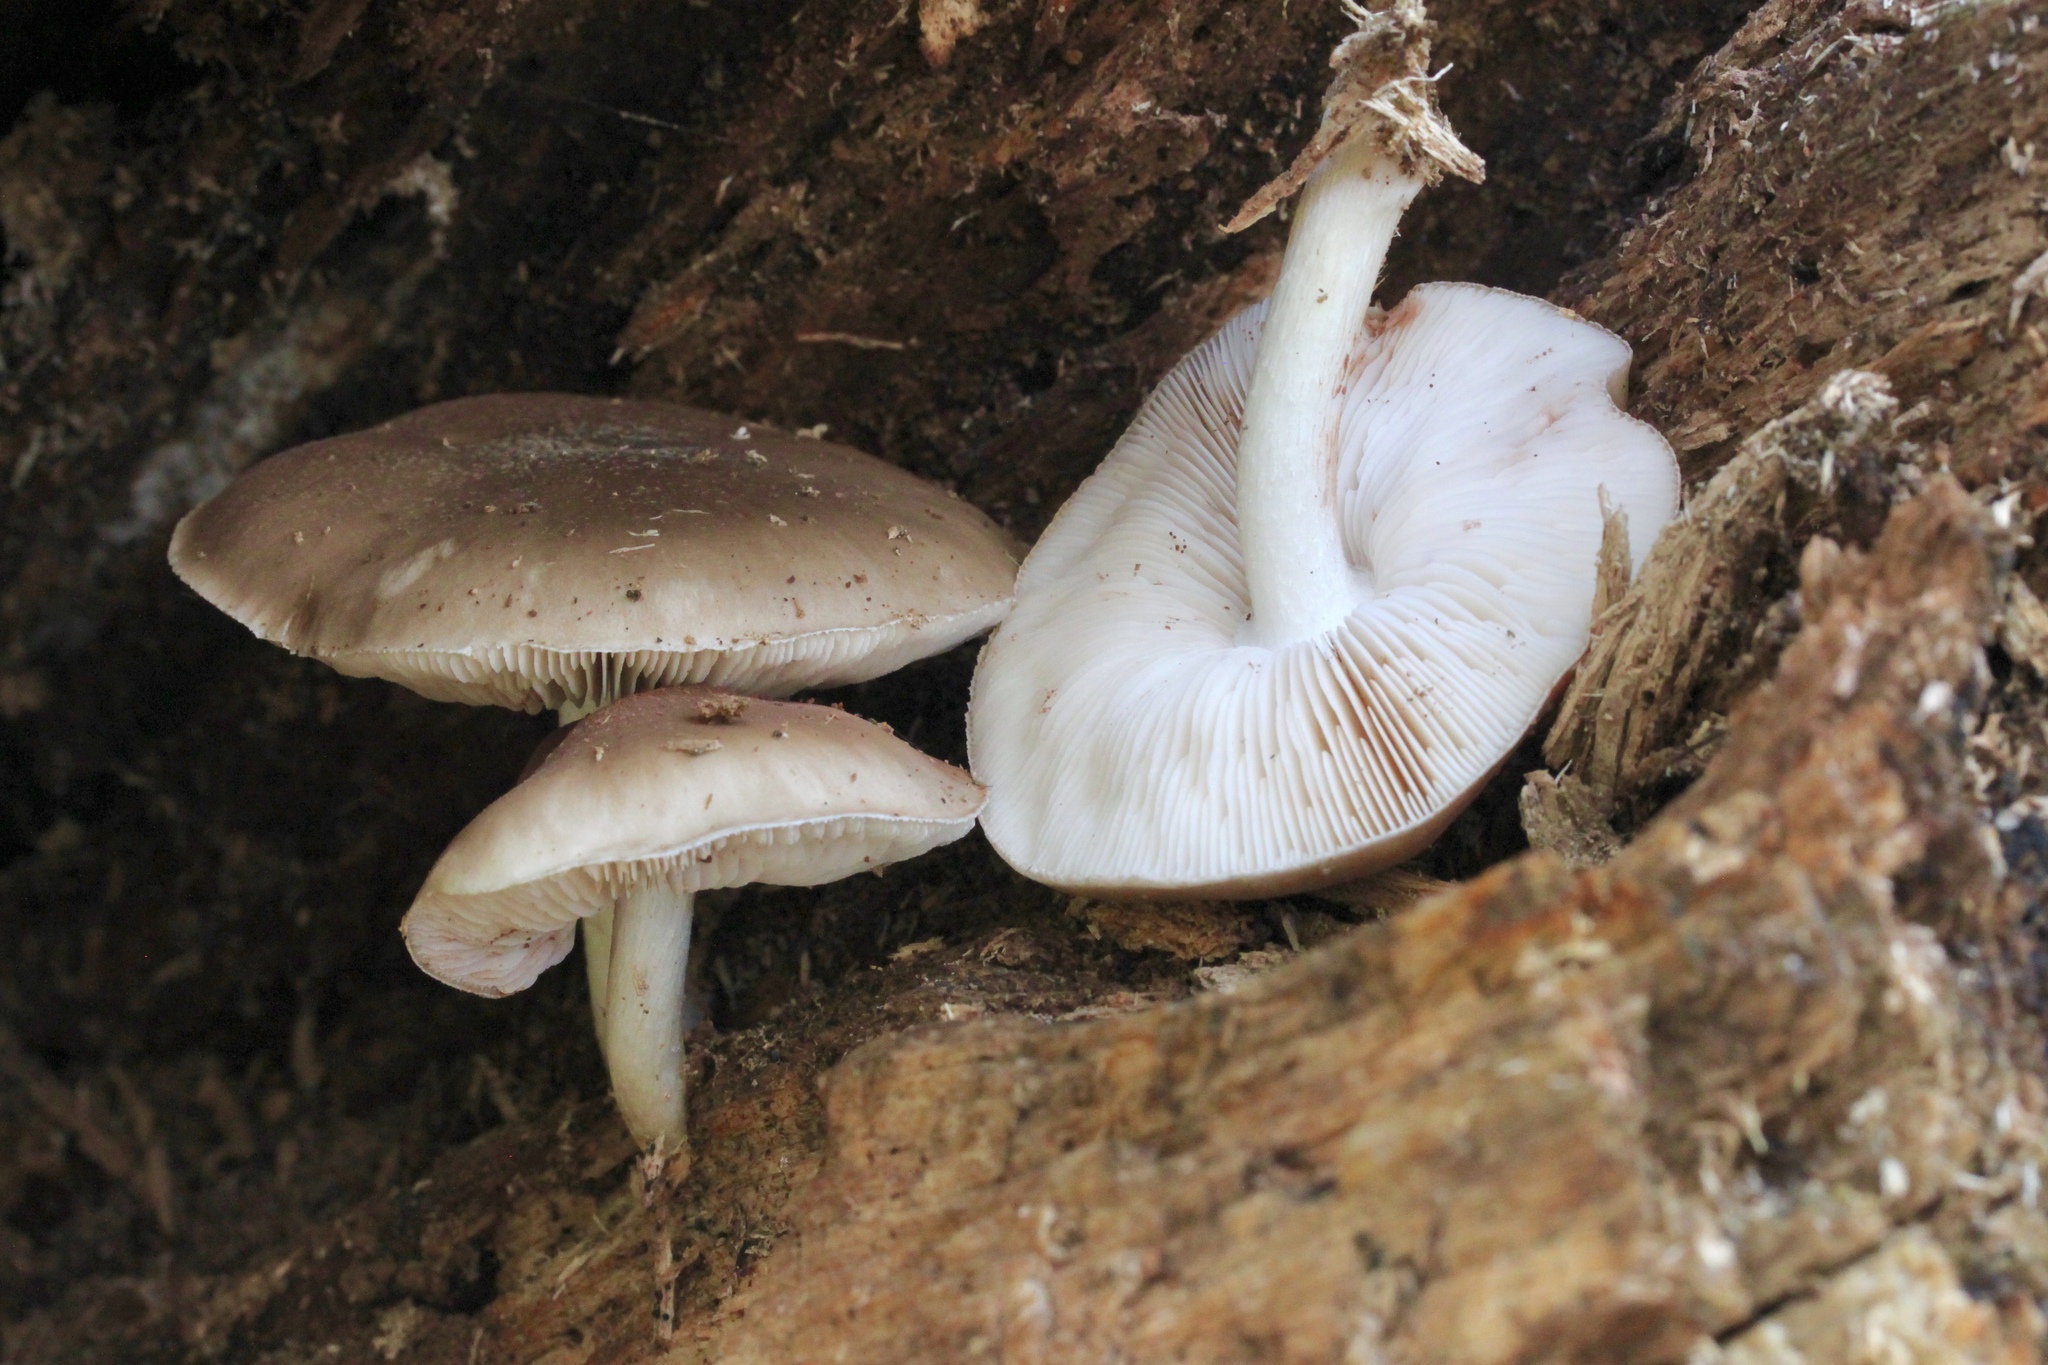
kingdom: Fungi
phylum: Basidiomycota
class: Agaricomycetes
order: Agaricales
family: Pluteaceae
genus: Pluteus
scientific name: Pluteus cervinus
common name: Deer shield
